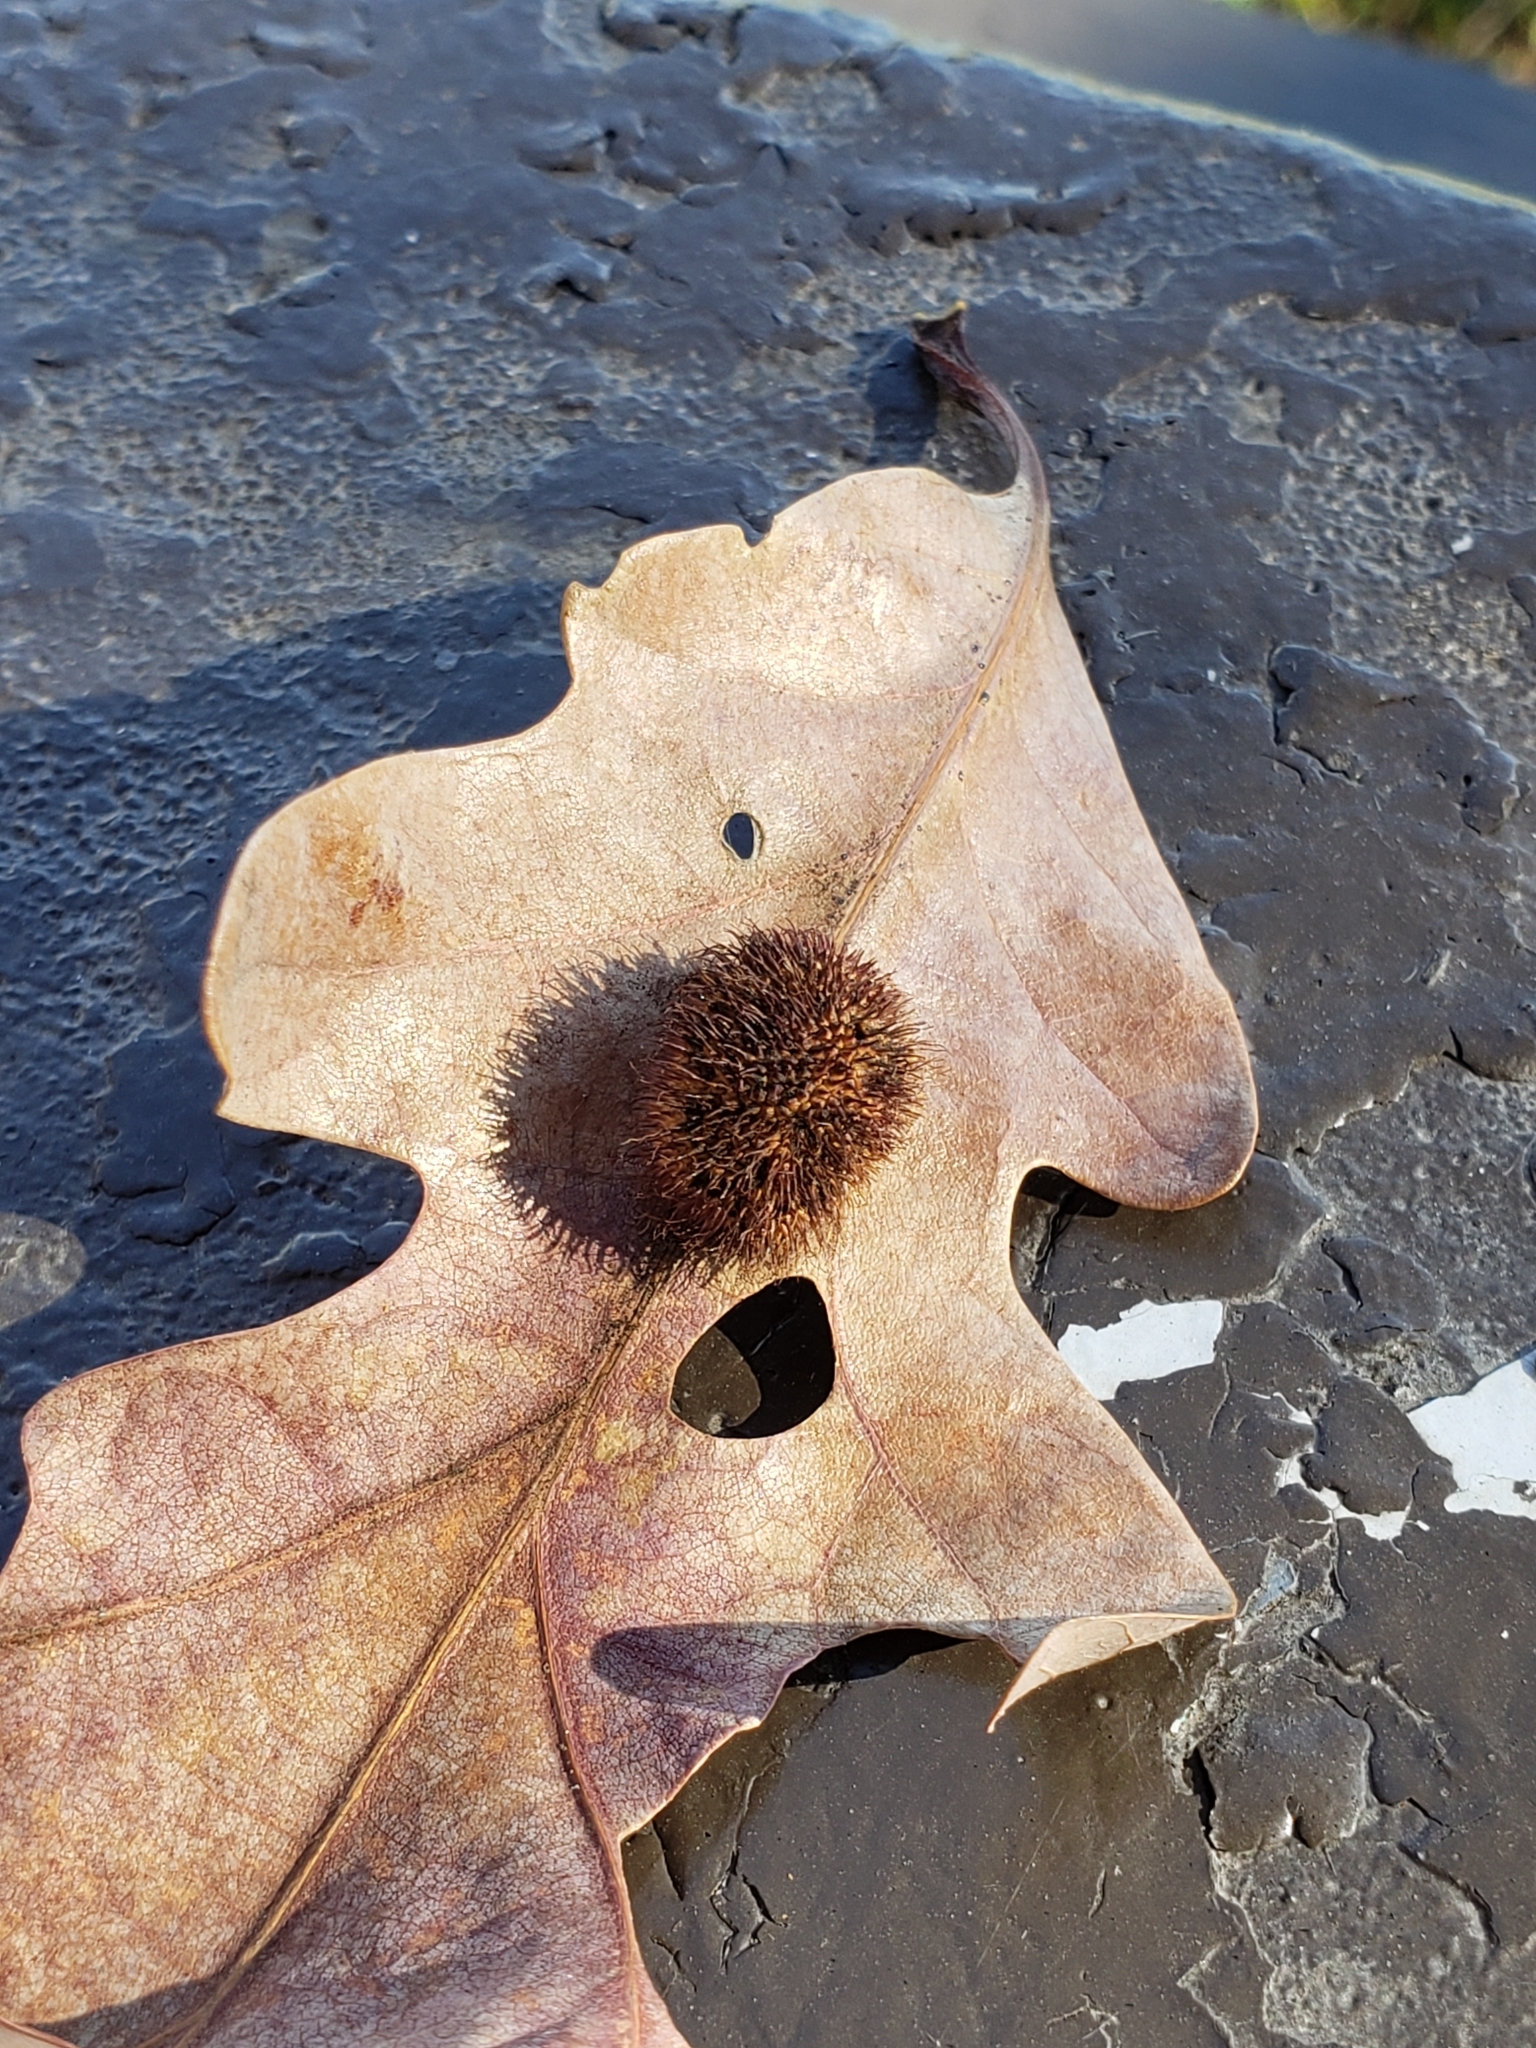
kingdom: Animalia
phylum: Arthropoda
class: Insecta
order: Hymenoptera
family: Cynipidae
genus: Acraspis
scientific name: Acraspis erinacei
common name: Hedgehog gall wasp
